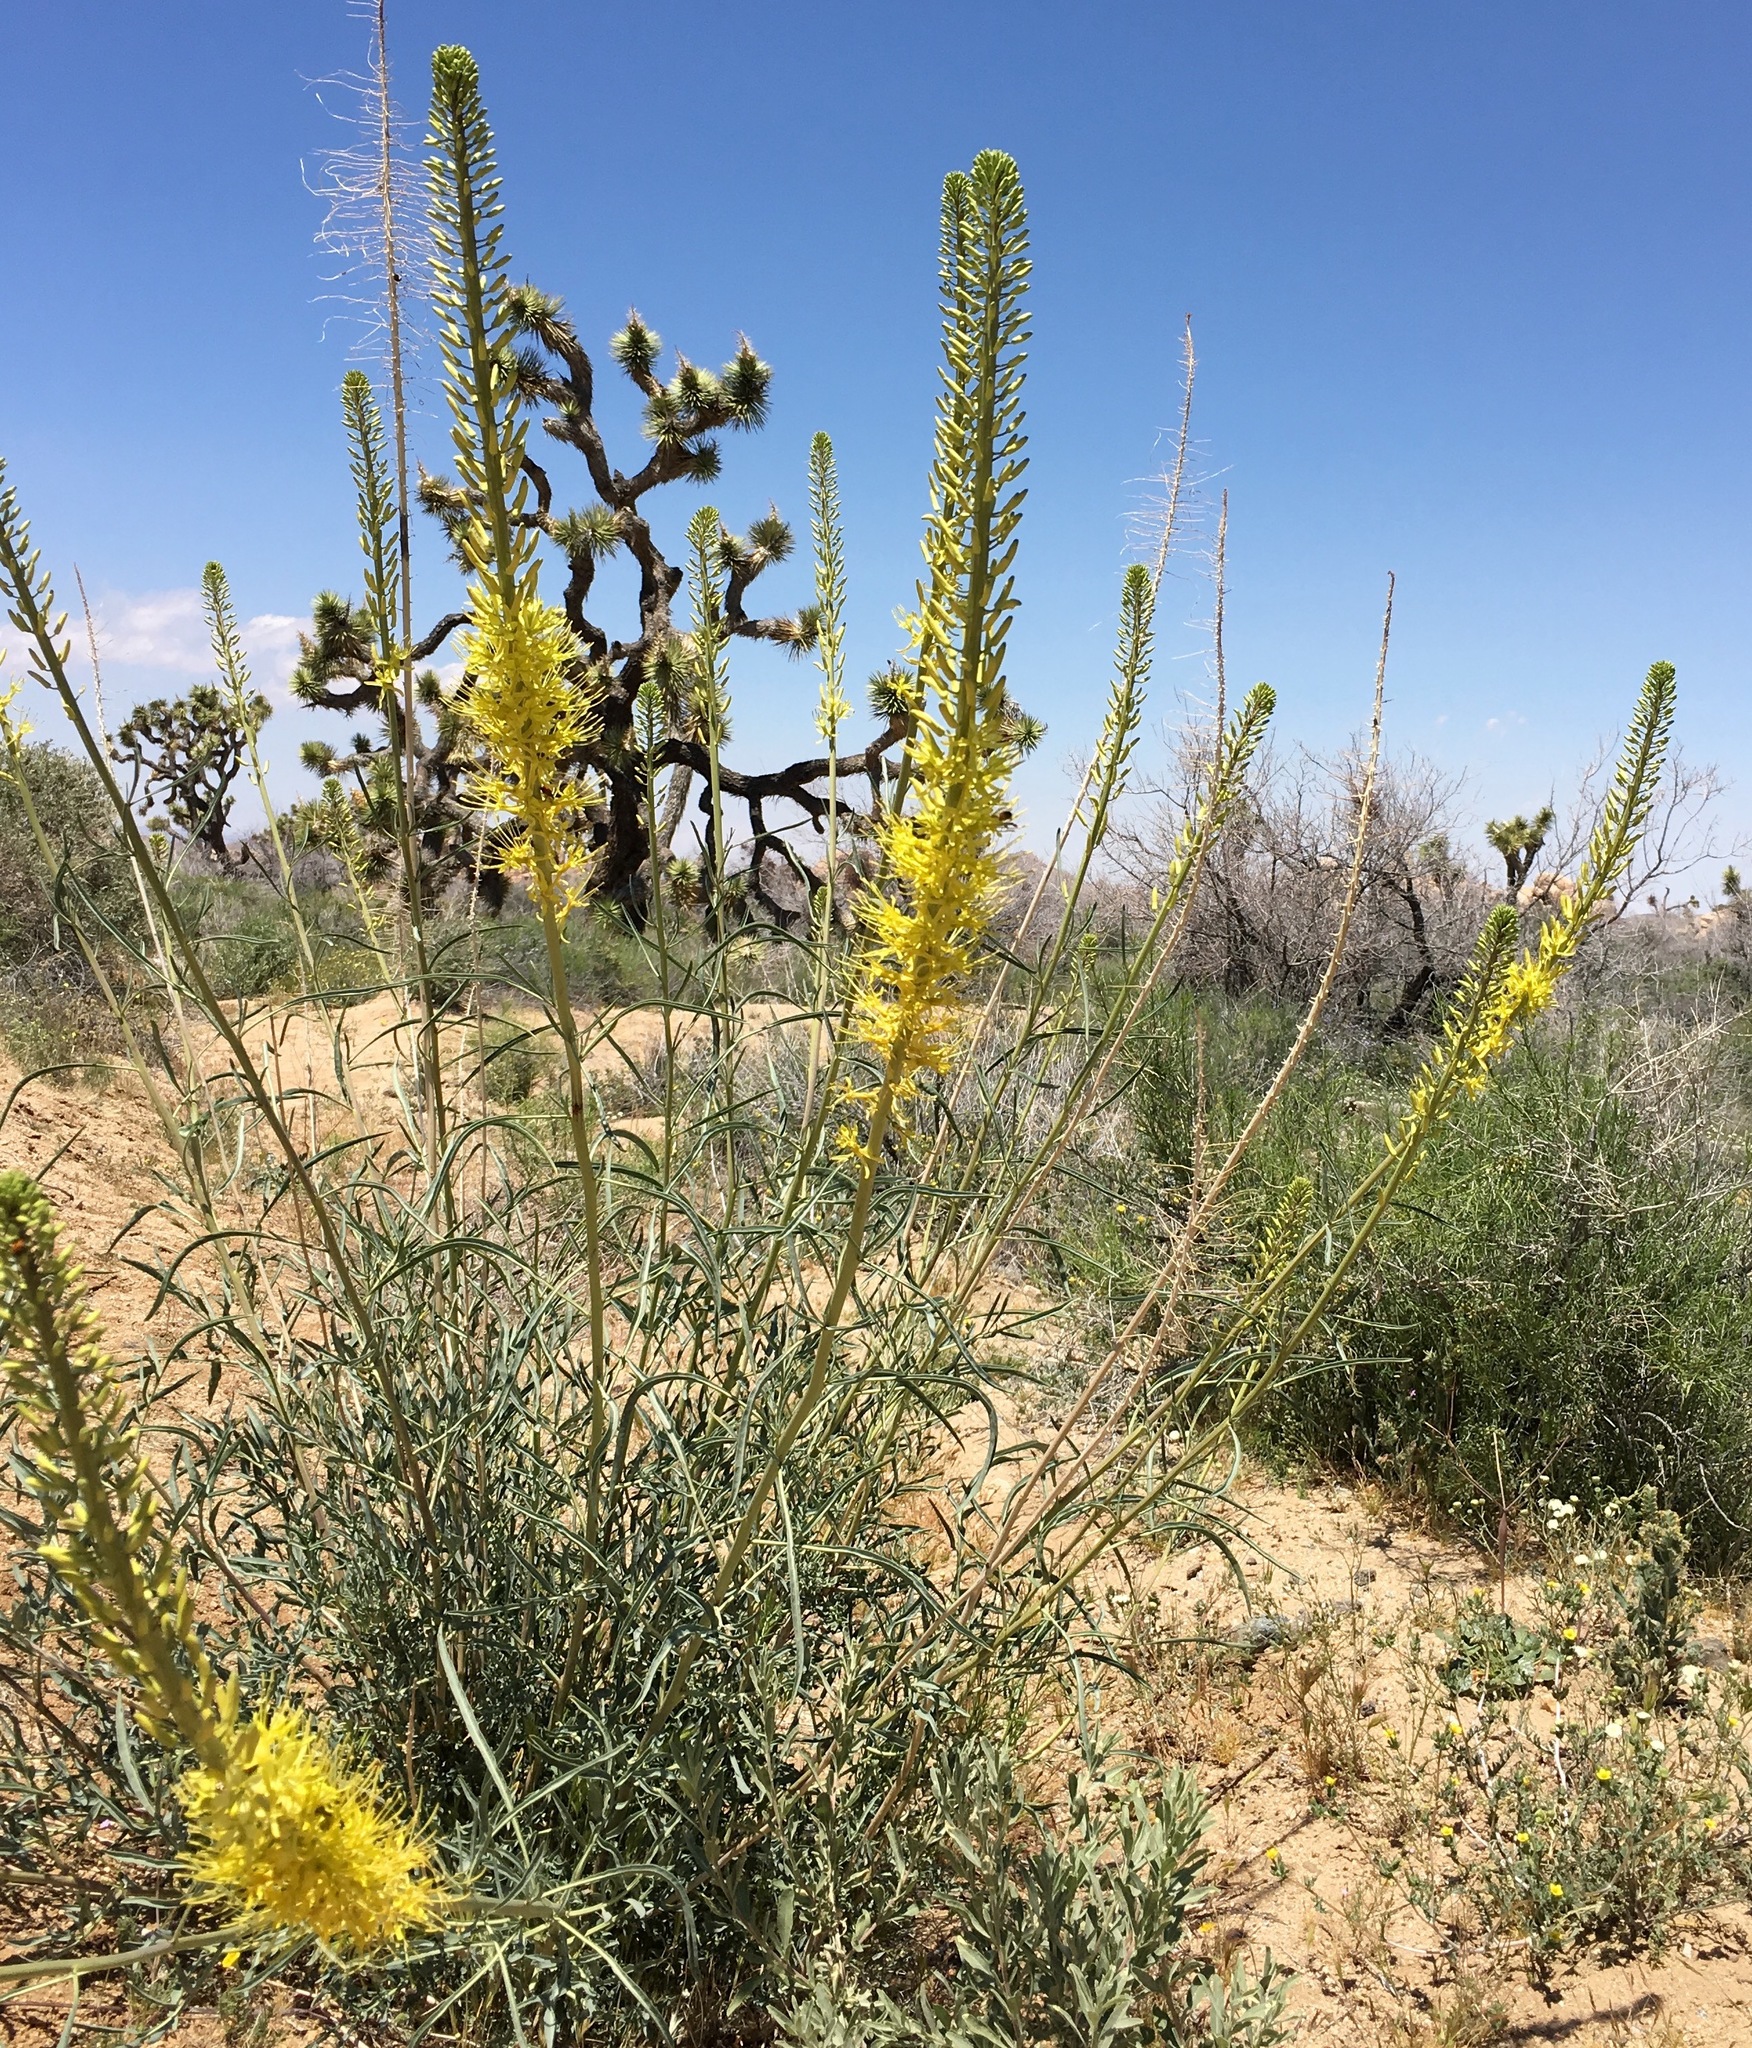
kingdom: Plantae
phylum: Tracheophyta
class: Magnoliopsida
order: Brassicales
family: Brassicaceae
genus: Stanleya
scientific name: Stanleya pinnata
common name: Prince's-plume
